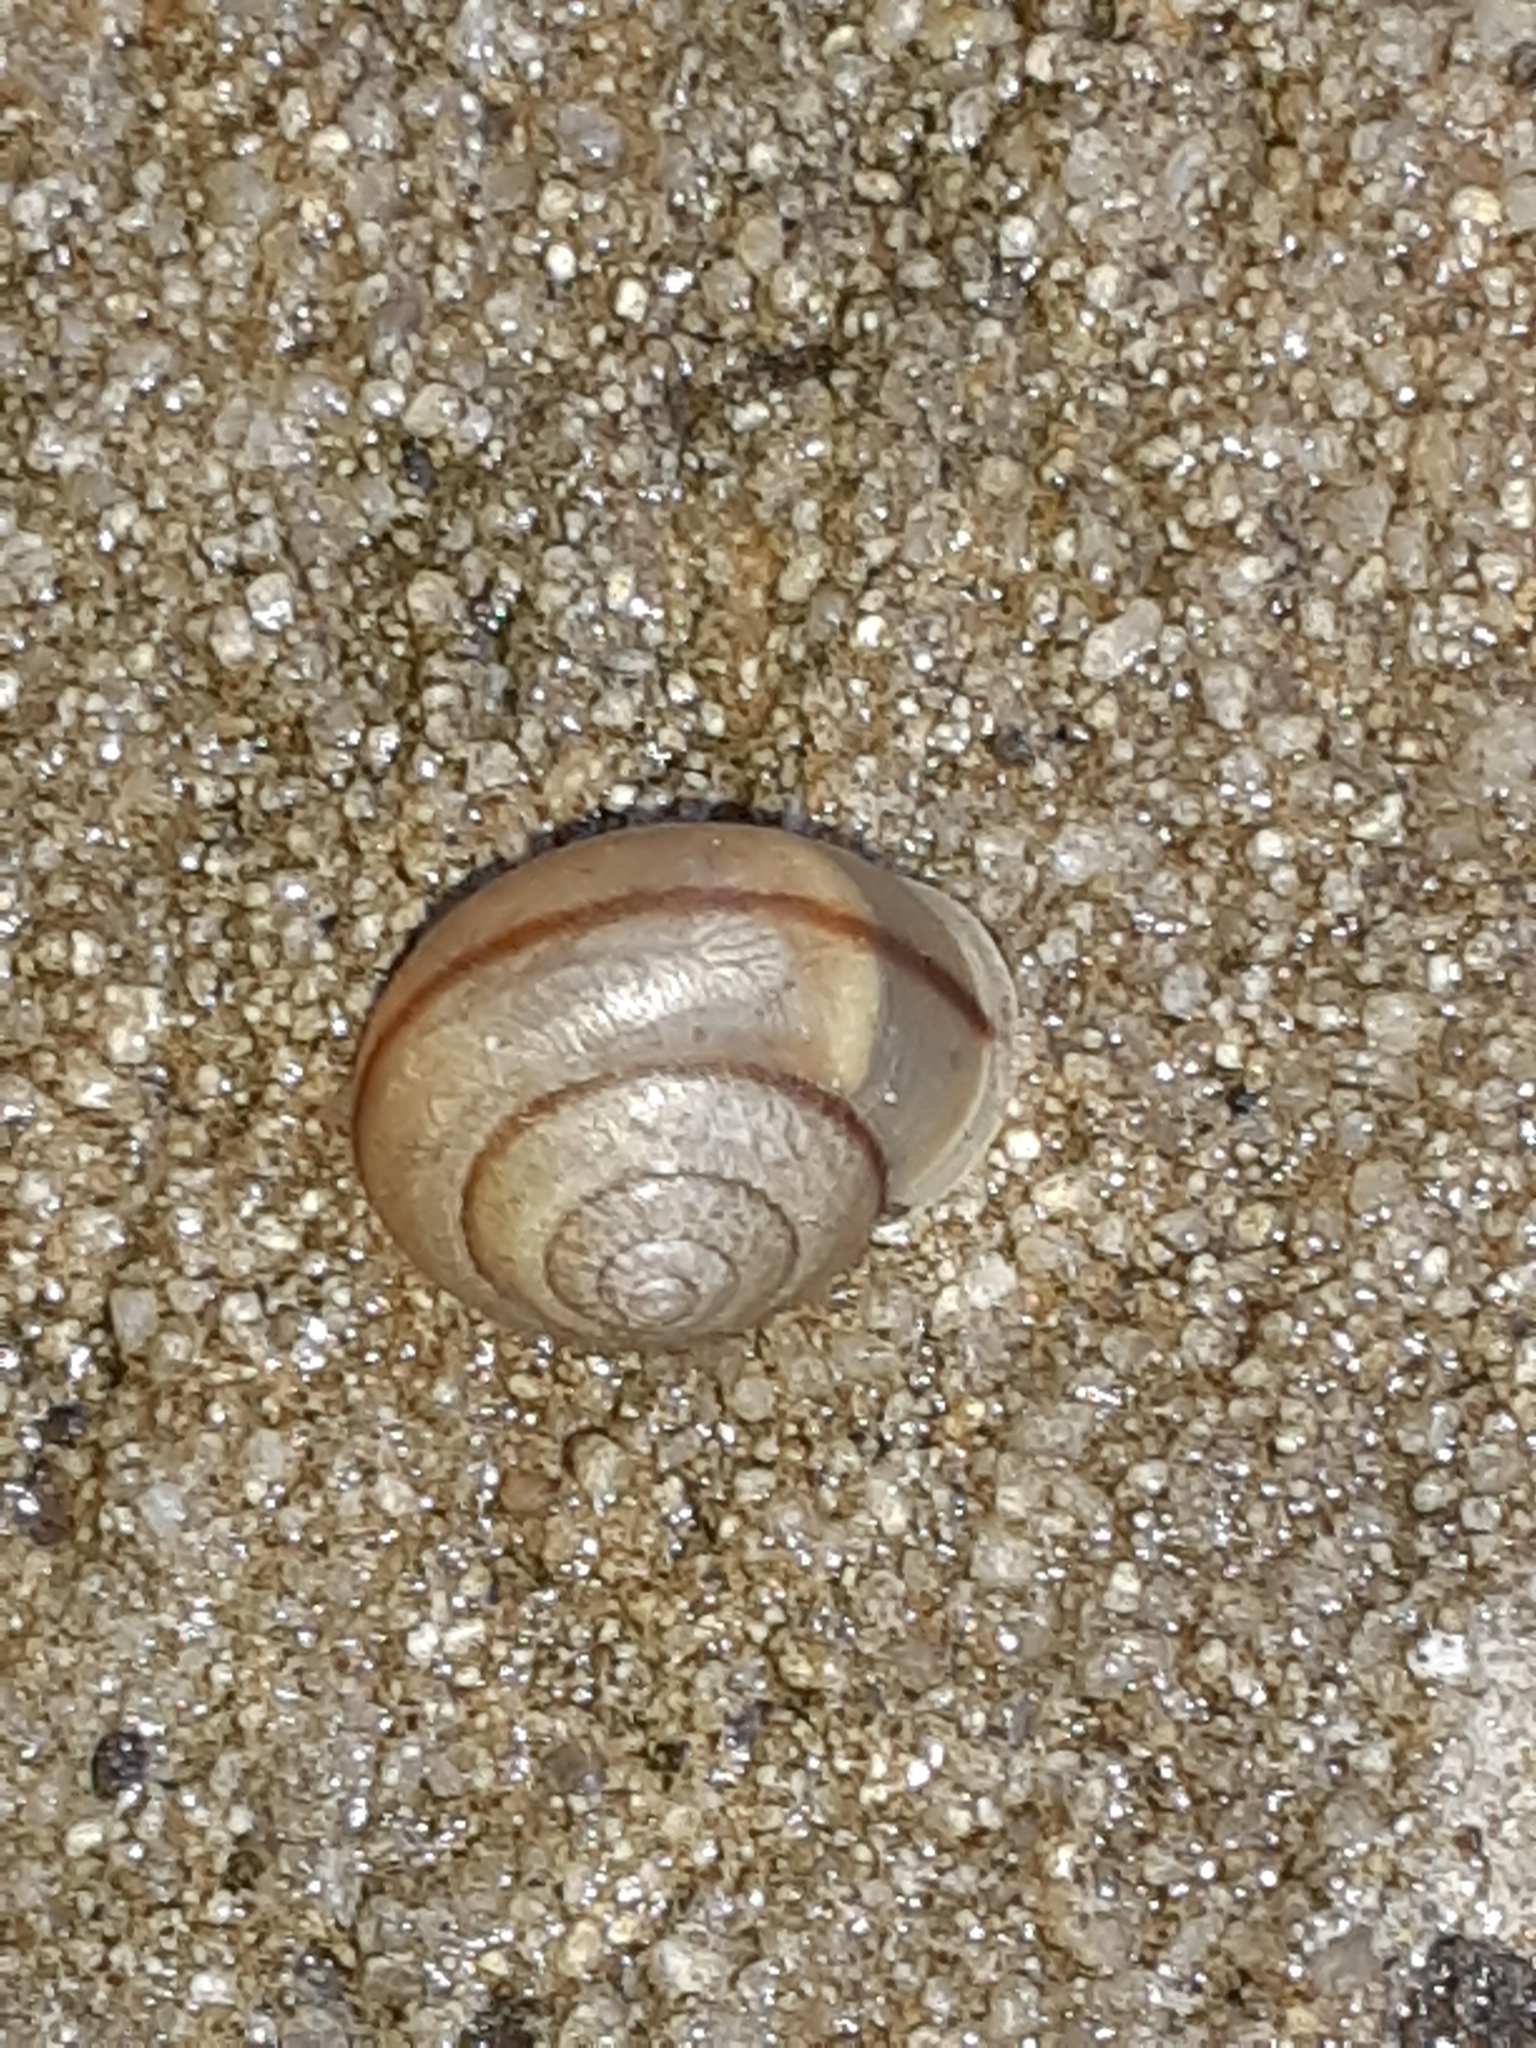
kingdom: Animalia
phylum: Mollusca
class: Gastropoda
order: Stylommatophora
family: Camaenidae
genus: Bradybaena
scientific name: Bradybaena similaris
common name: Asian trampsnail
